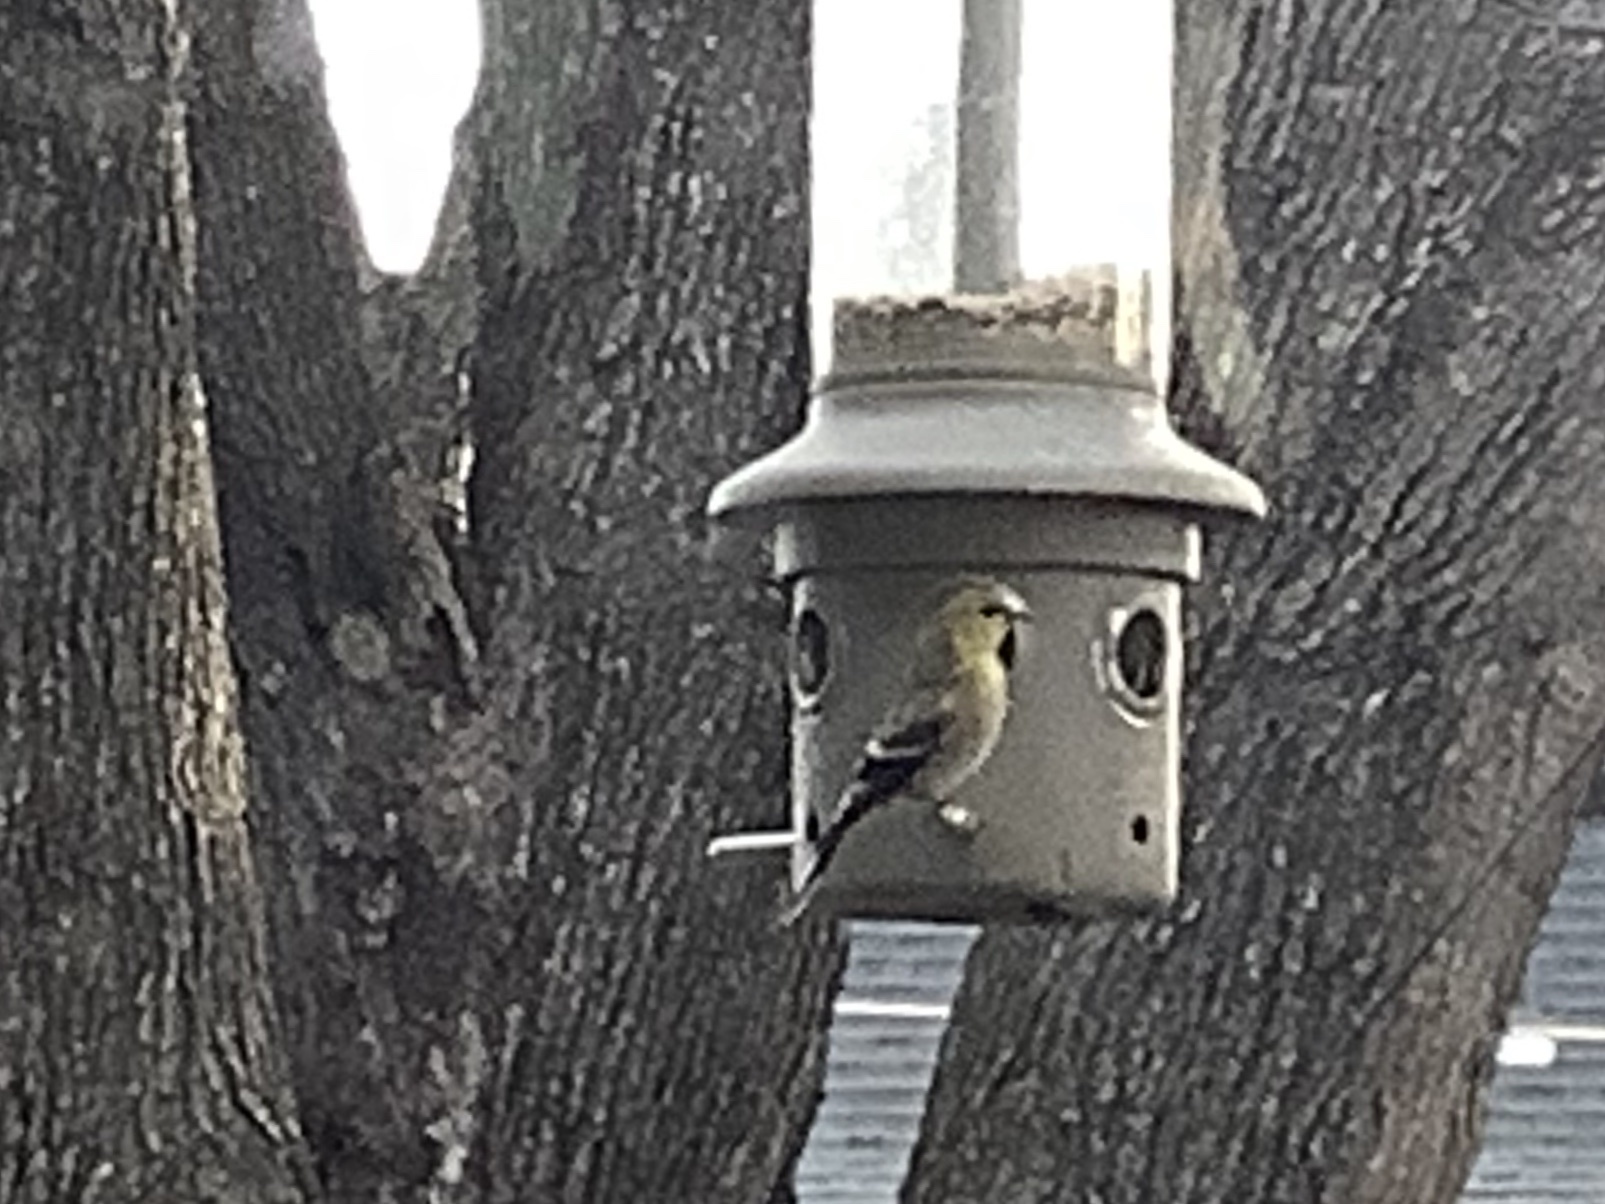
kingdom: Animalia
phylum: Chordata
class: Aves
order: Passeriformes
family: Fringillidae
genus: Spinus
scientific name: Spinus tristis
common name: American goldfinch
